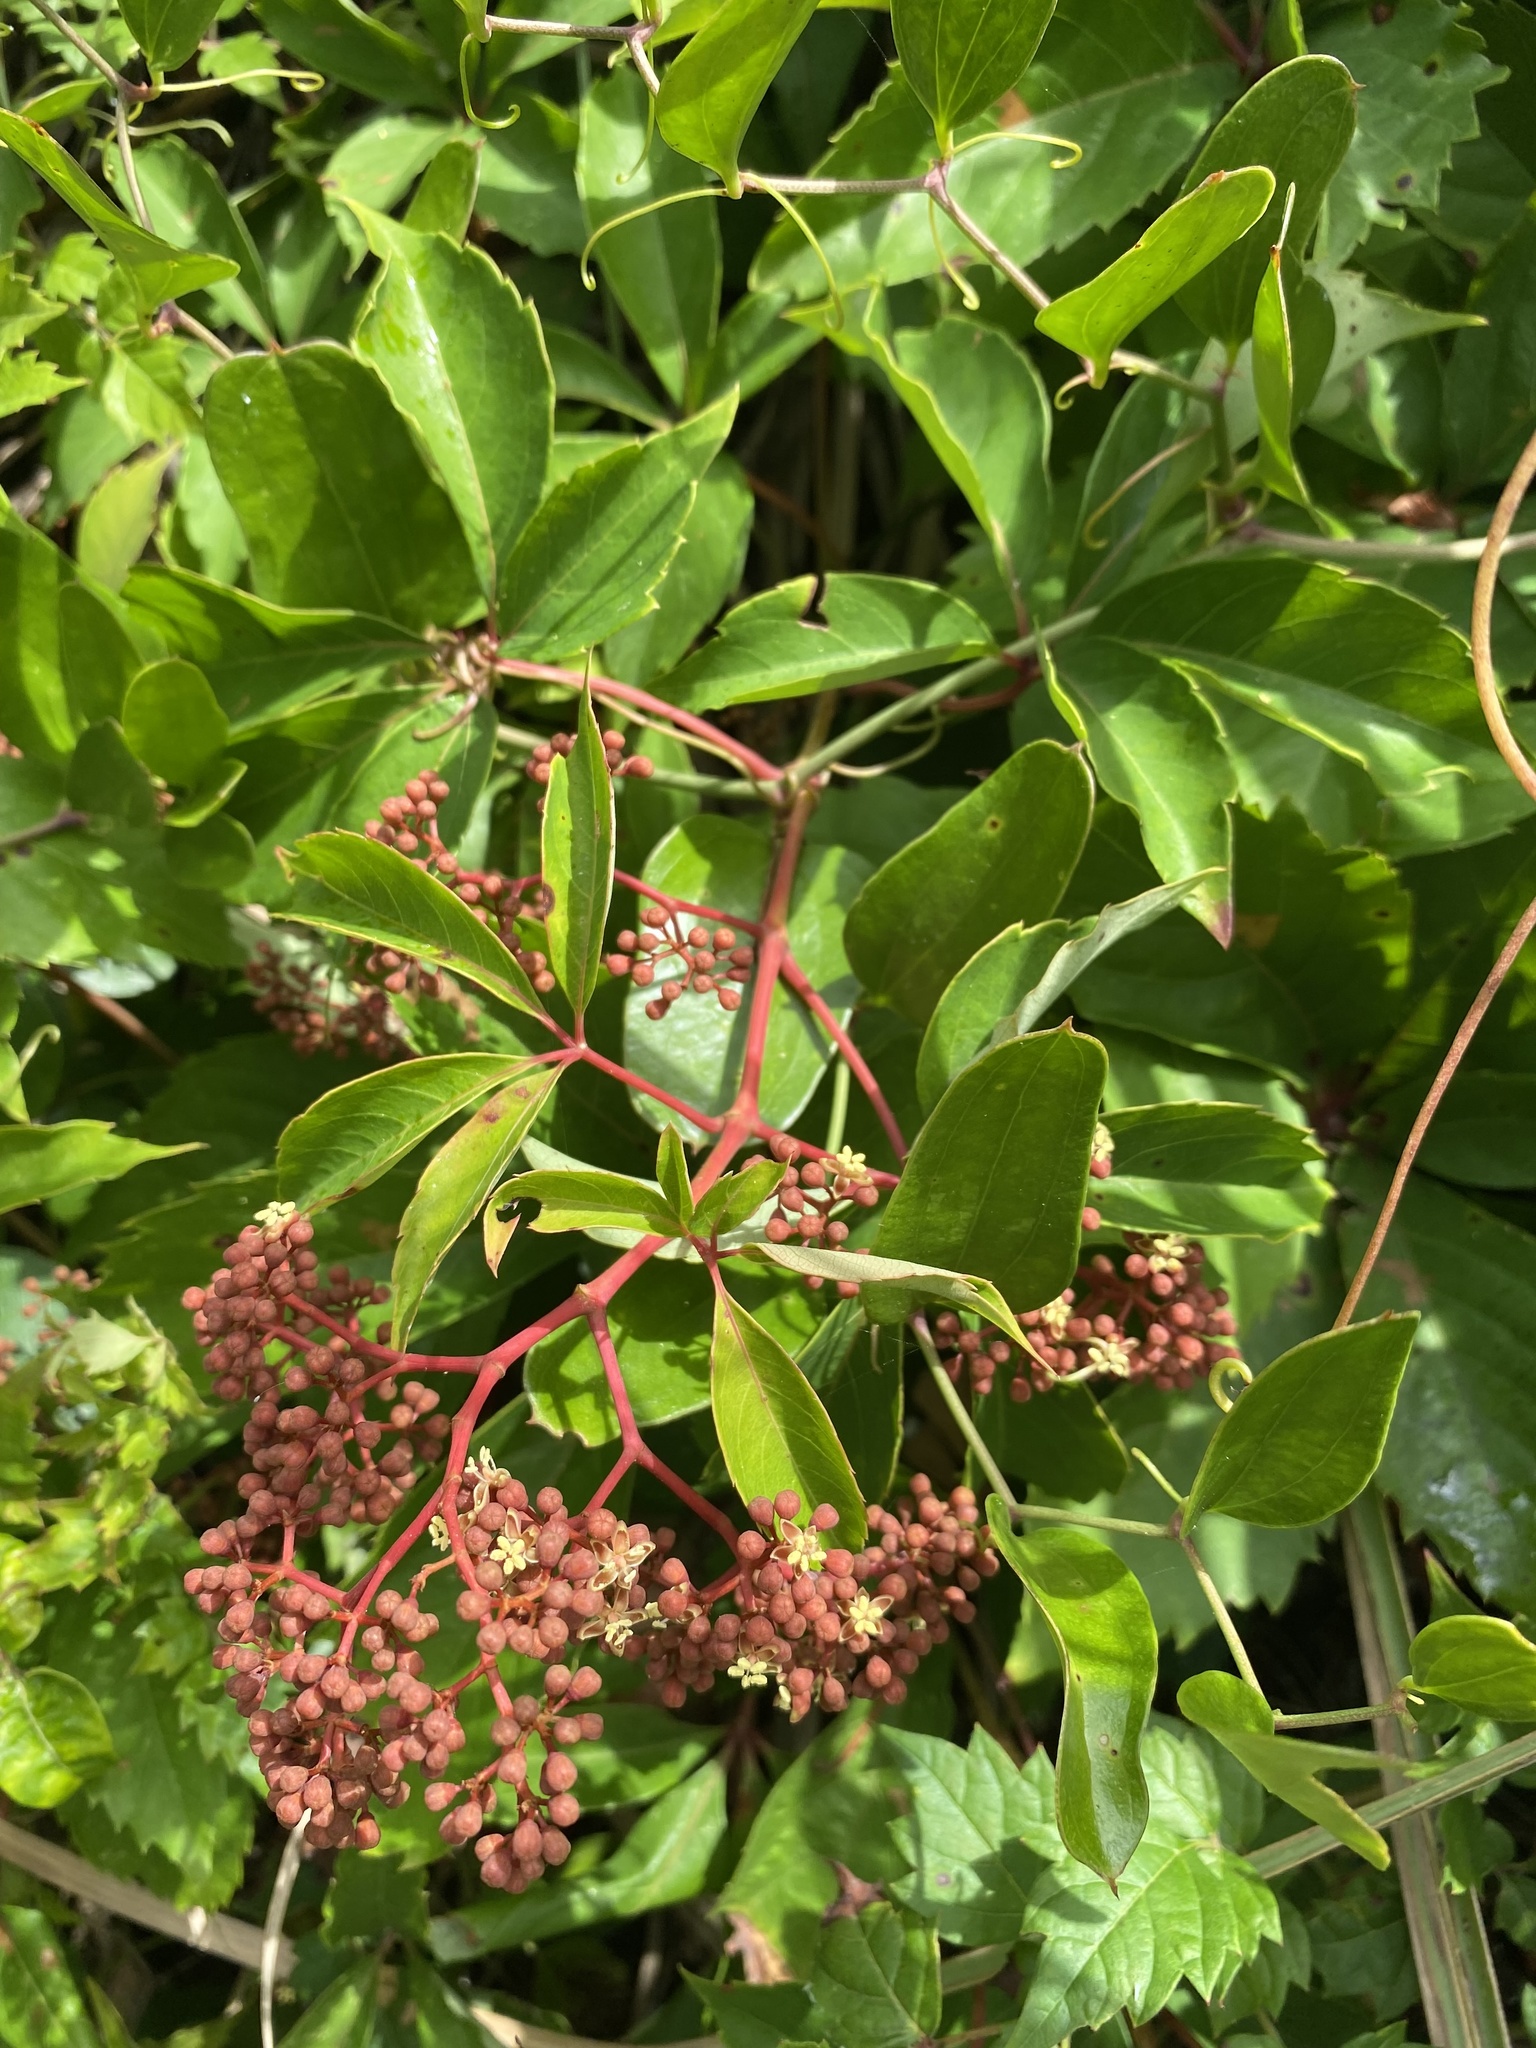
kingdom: Plantae
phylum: Tracheophyta
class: Magnoliopsida
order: Vitales
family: Vitaceae
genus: Parthenocissus
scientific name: Parthenocissus quinquefolia
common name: Virginia-creeper
